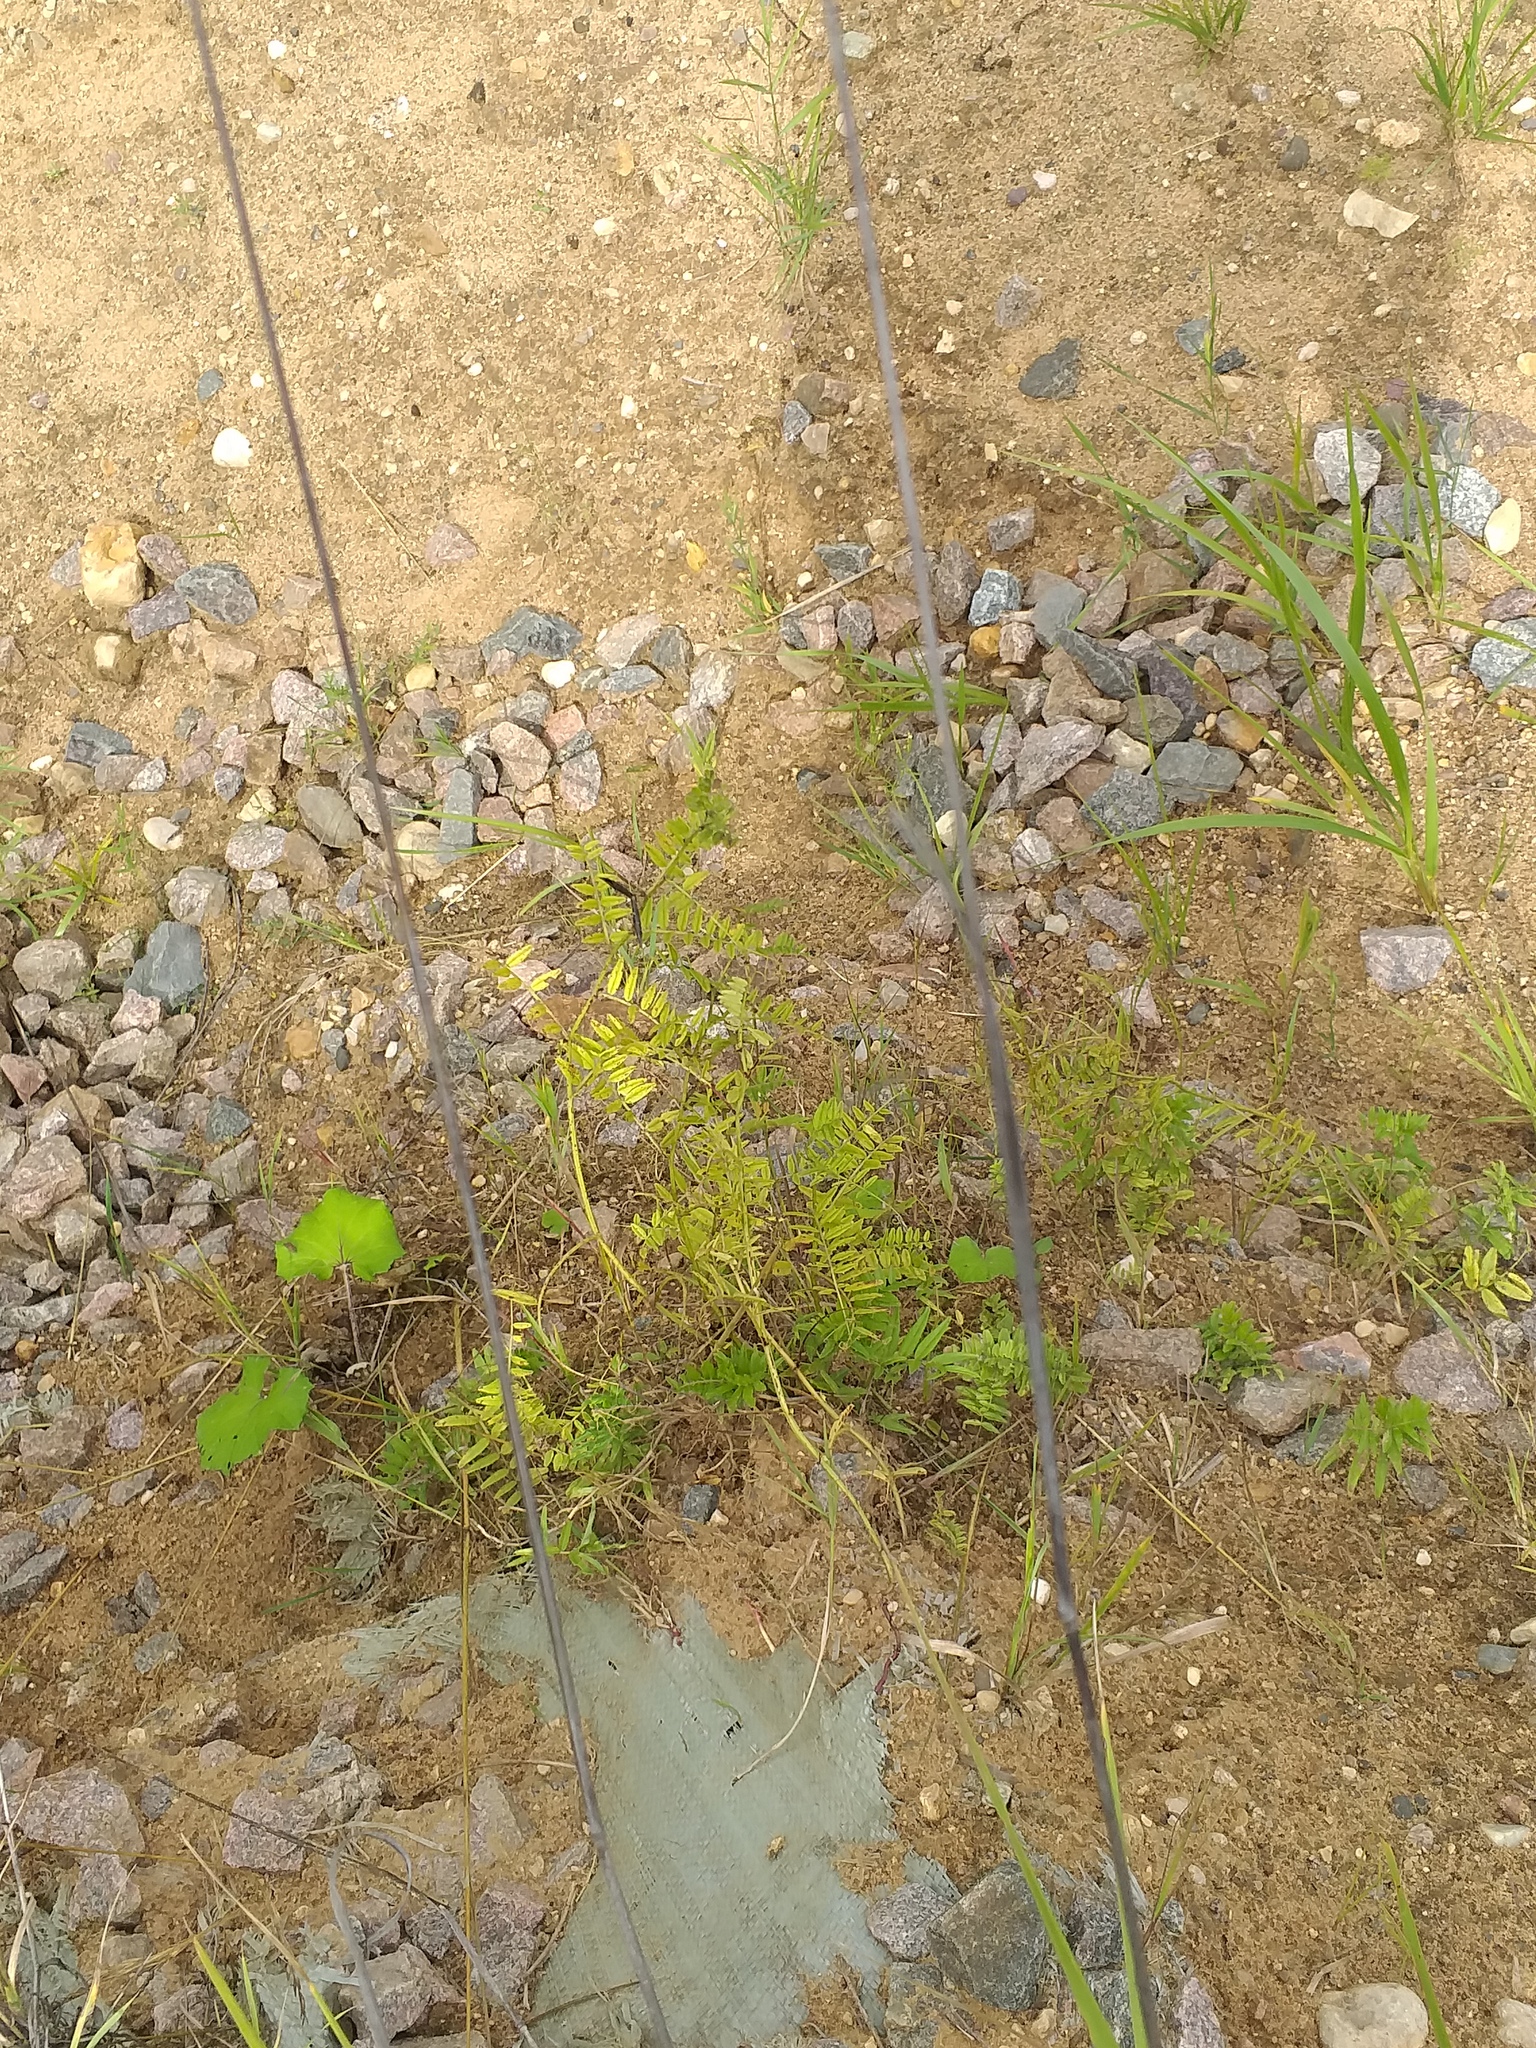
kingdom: Plantae
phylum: Tracheophyta
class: Magnoliopsida
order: Fabales
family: Fabaceae
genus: Vicia
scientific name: Vicia sepium
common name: Bush vetch
